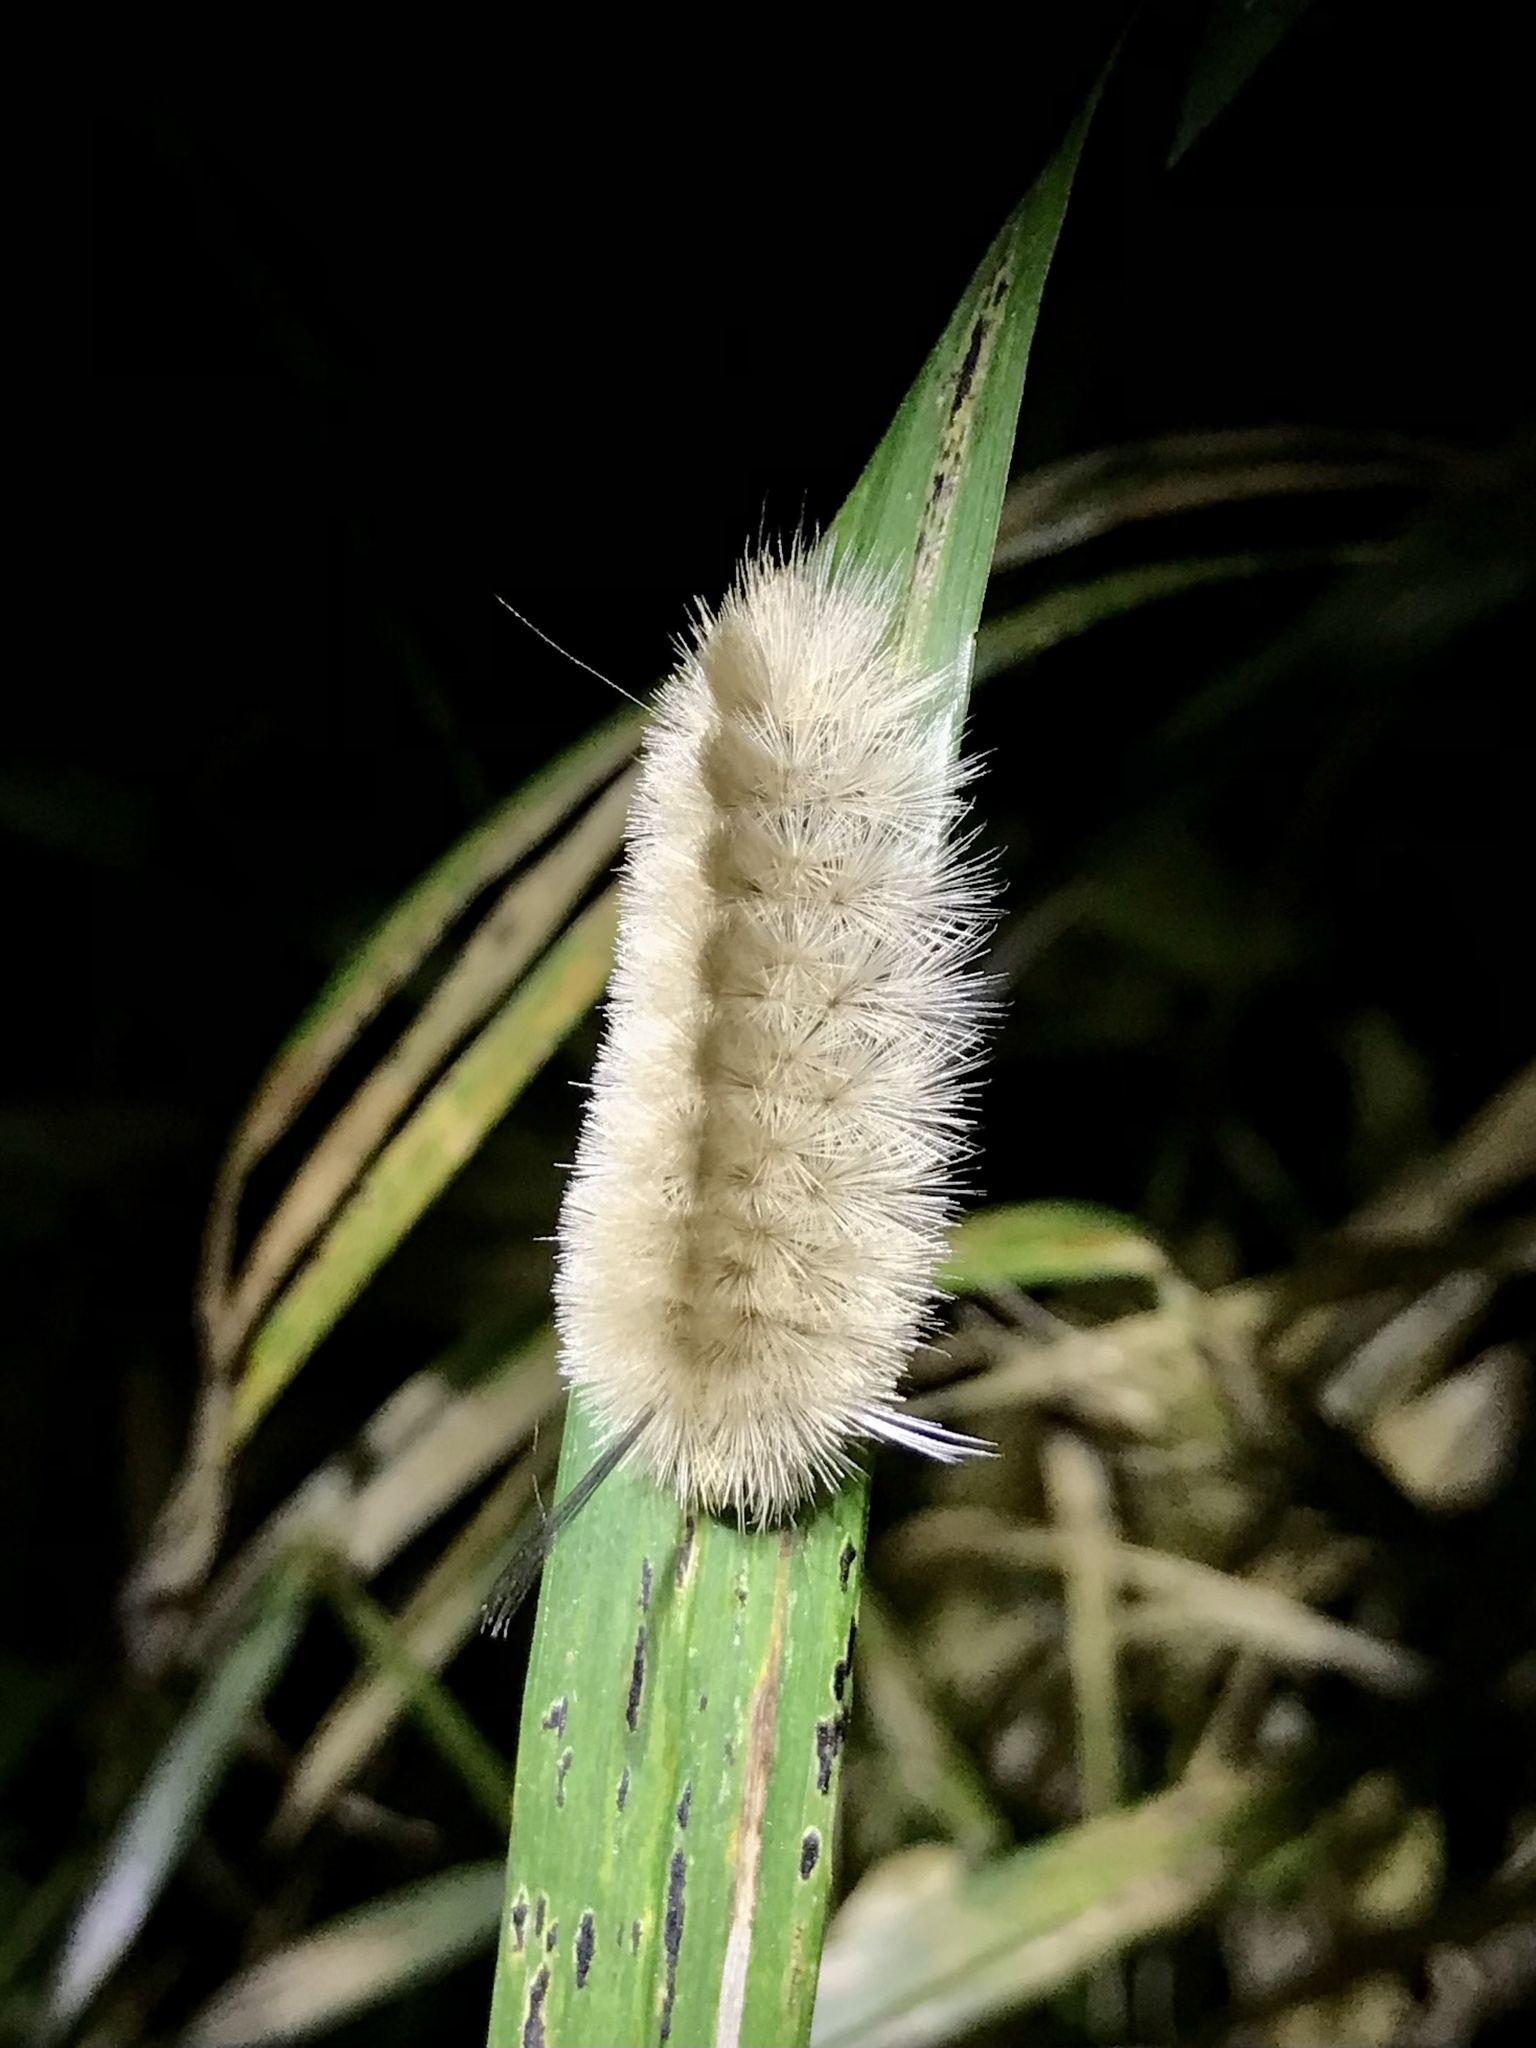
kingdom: Animalia
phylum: Arthropoda
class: Insecta
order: Lepidoptera
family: Erebidae
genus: Halysidota
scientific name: Halysidota tessellaris
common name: Banded tussock moth
